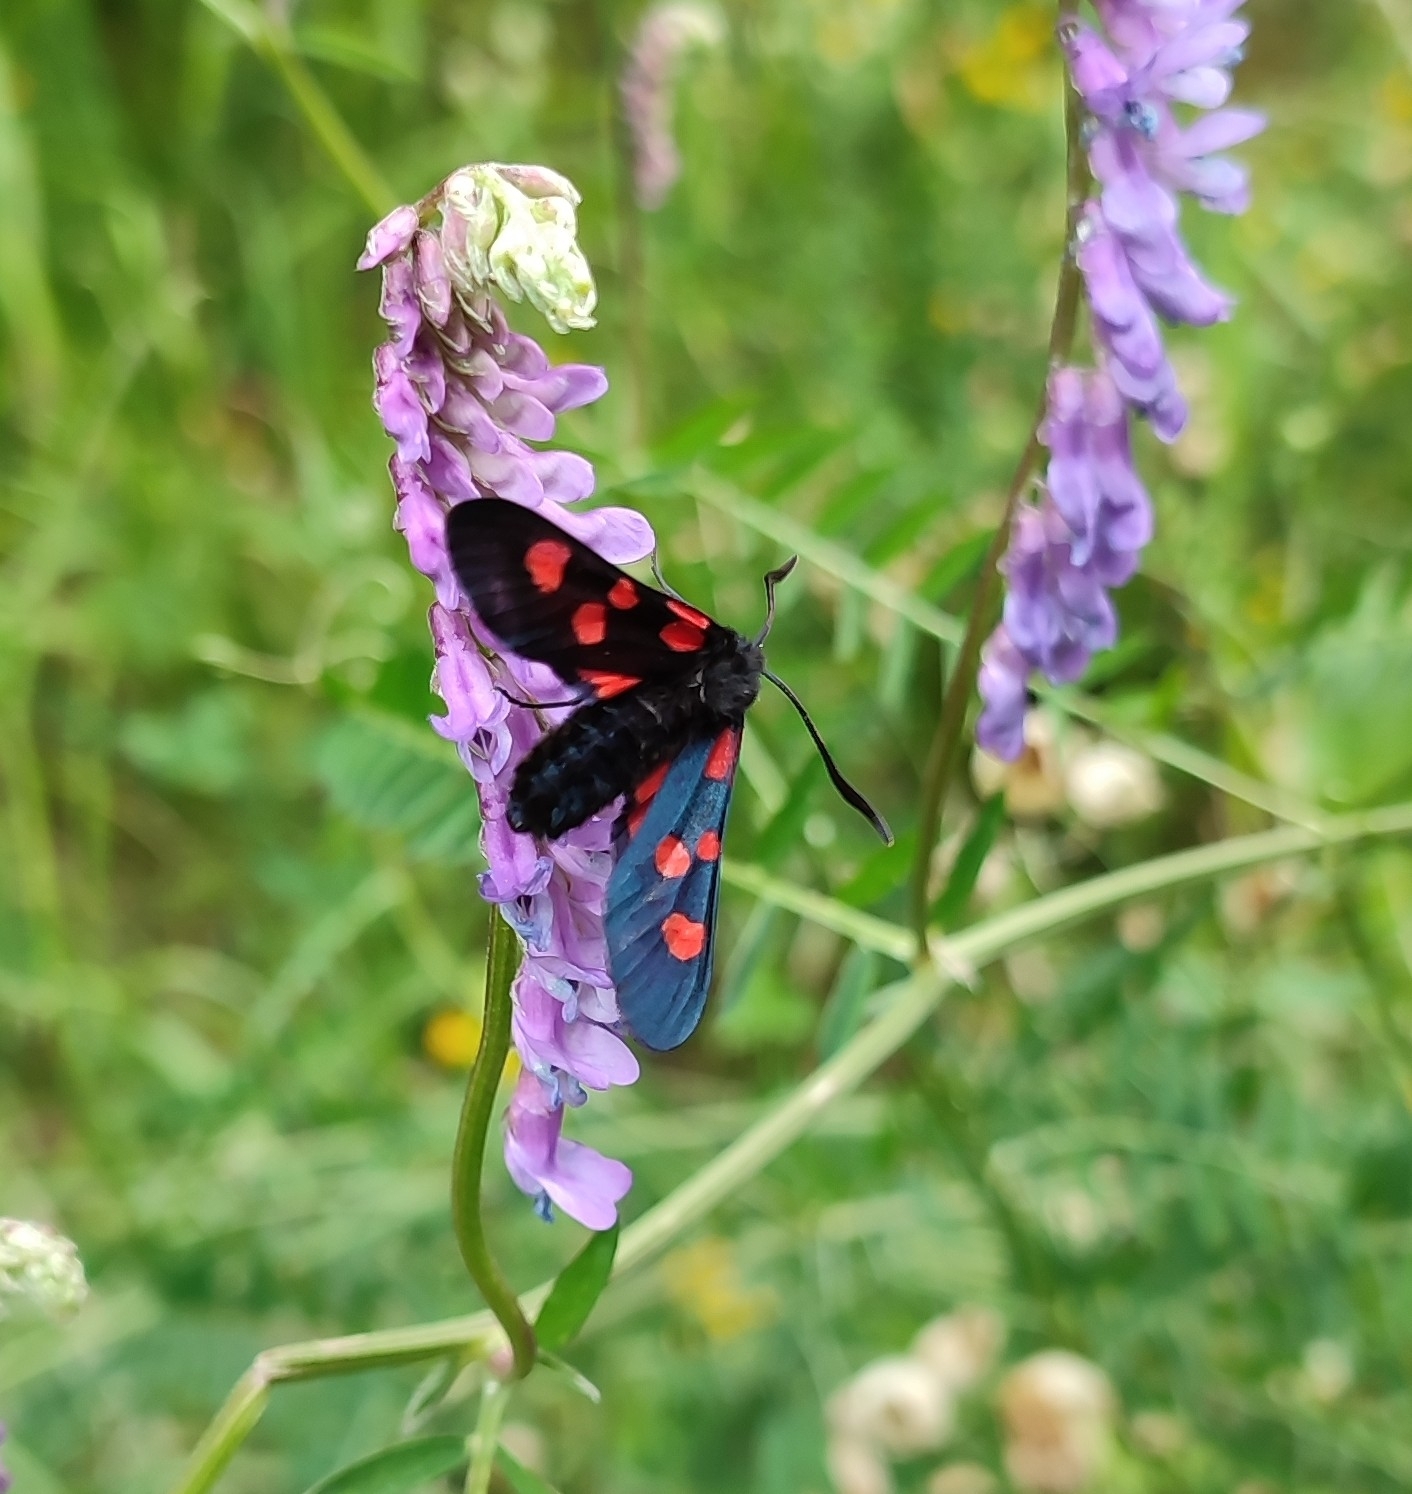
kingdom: Animalia
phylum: Arthropoda
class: Insecta
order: Lepidoptera
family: Zygaenidae
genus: Zygaena
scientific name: Zygaena lonicerae
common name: Narrow-bordered five-spot burnet
